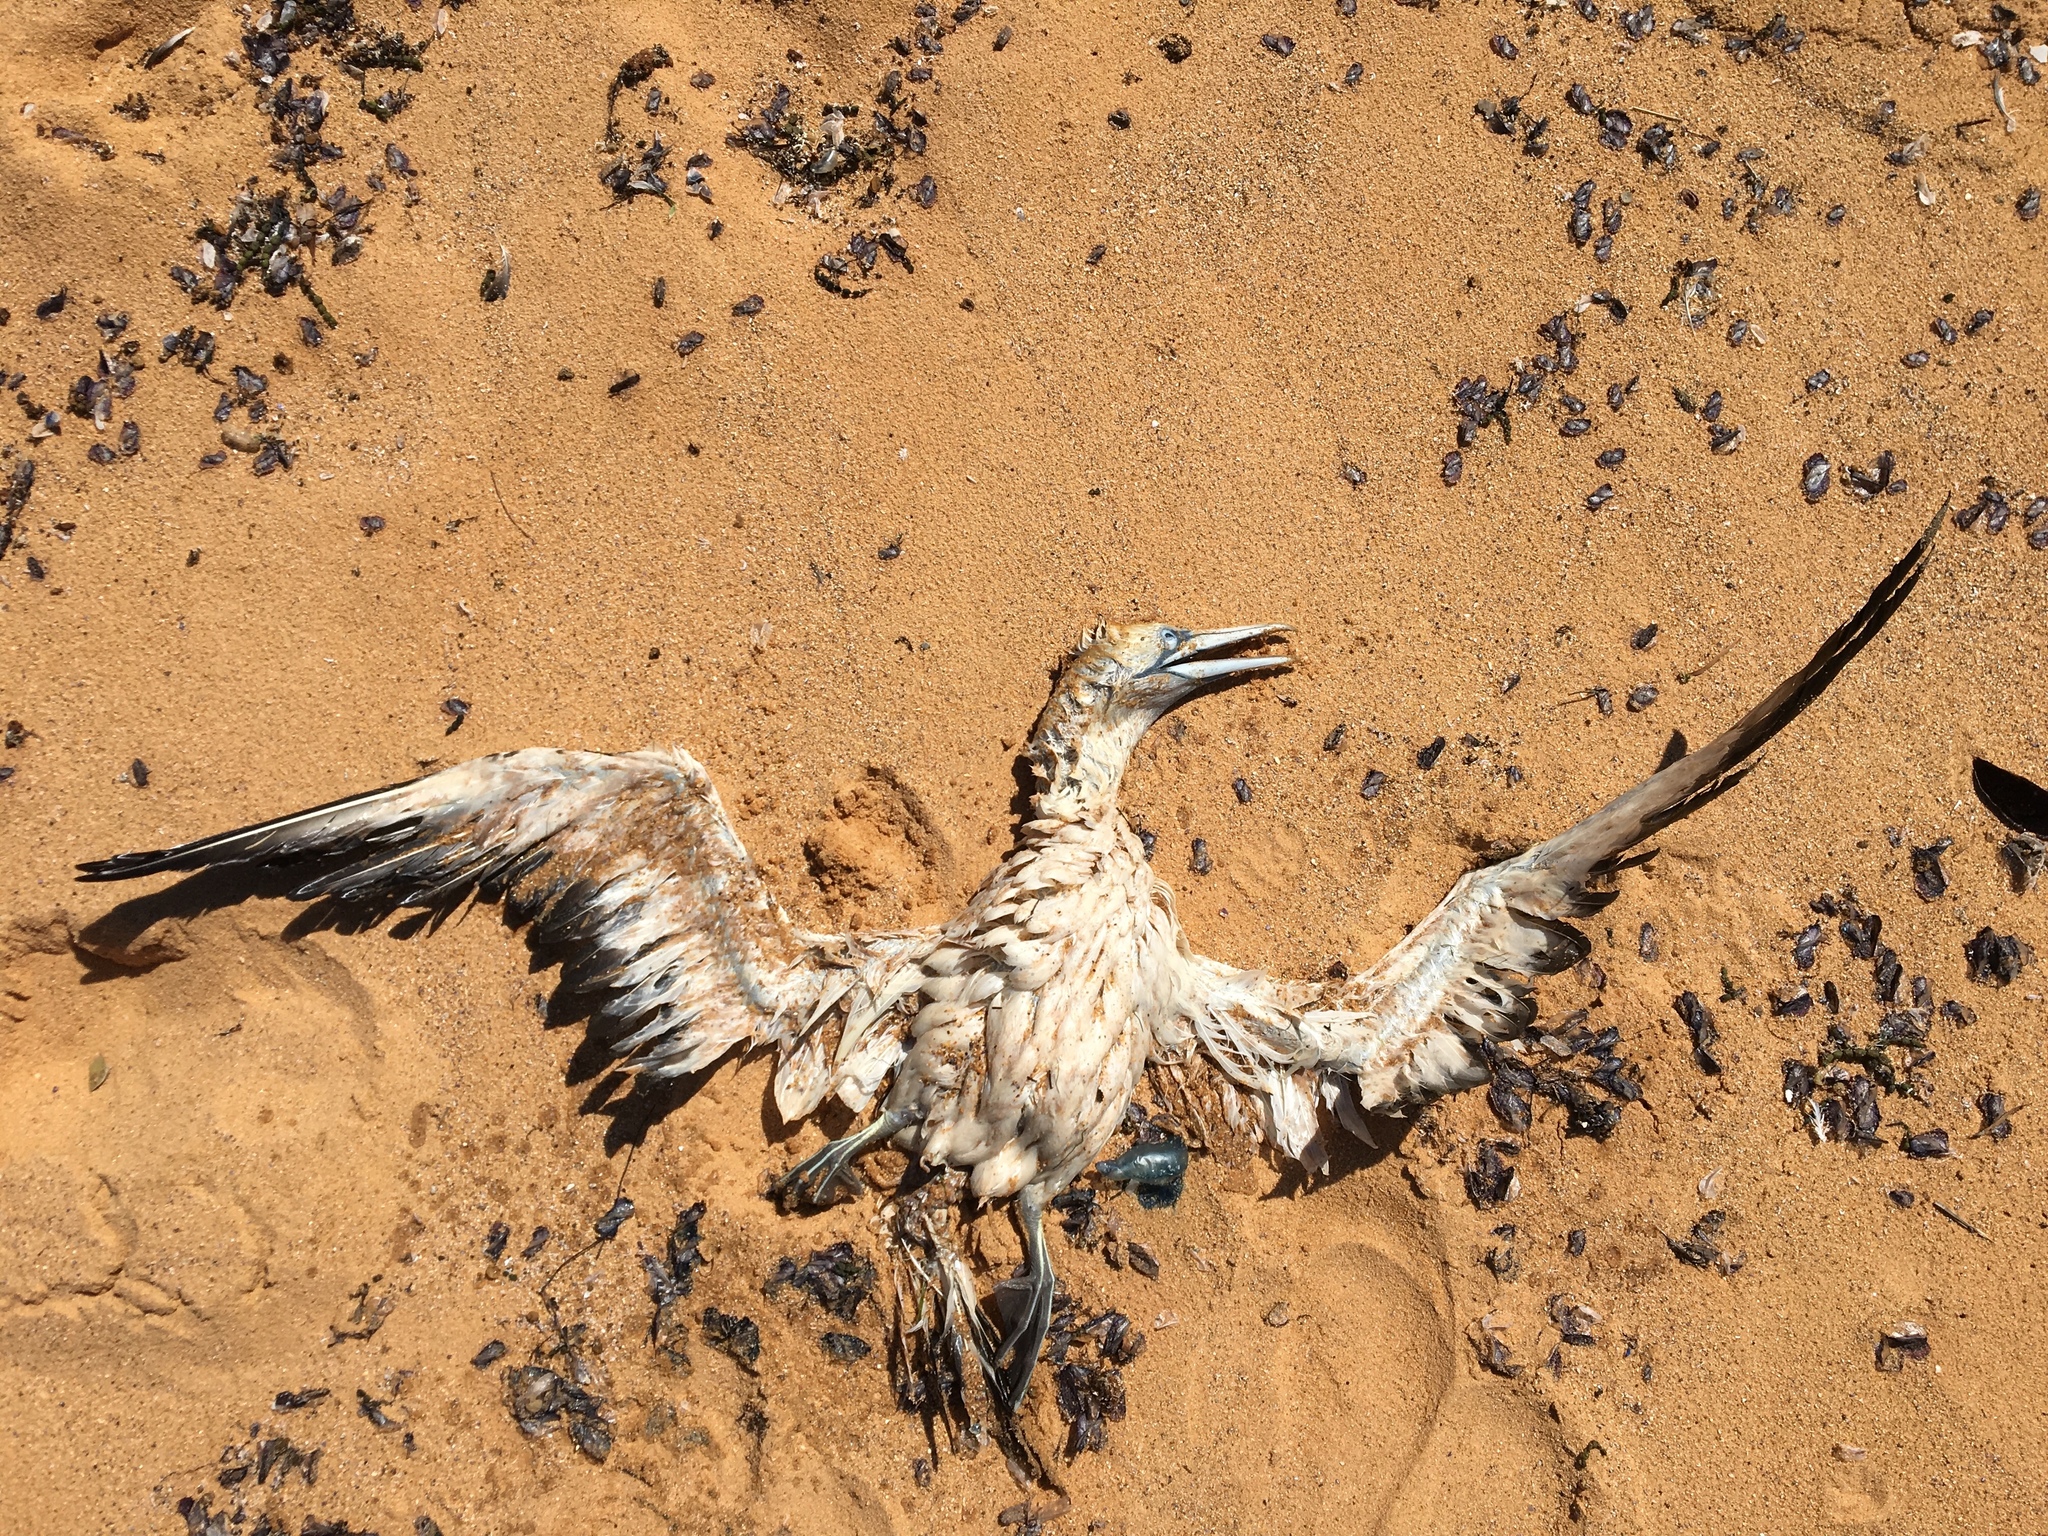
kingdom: Animalia
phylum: Chordata
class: Aves
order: Suliformes
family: Sulidae
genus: Morus
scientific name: Morus serrator
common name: Australasian gannet
